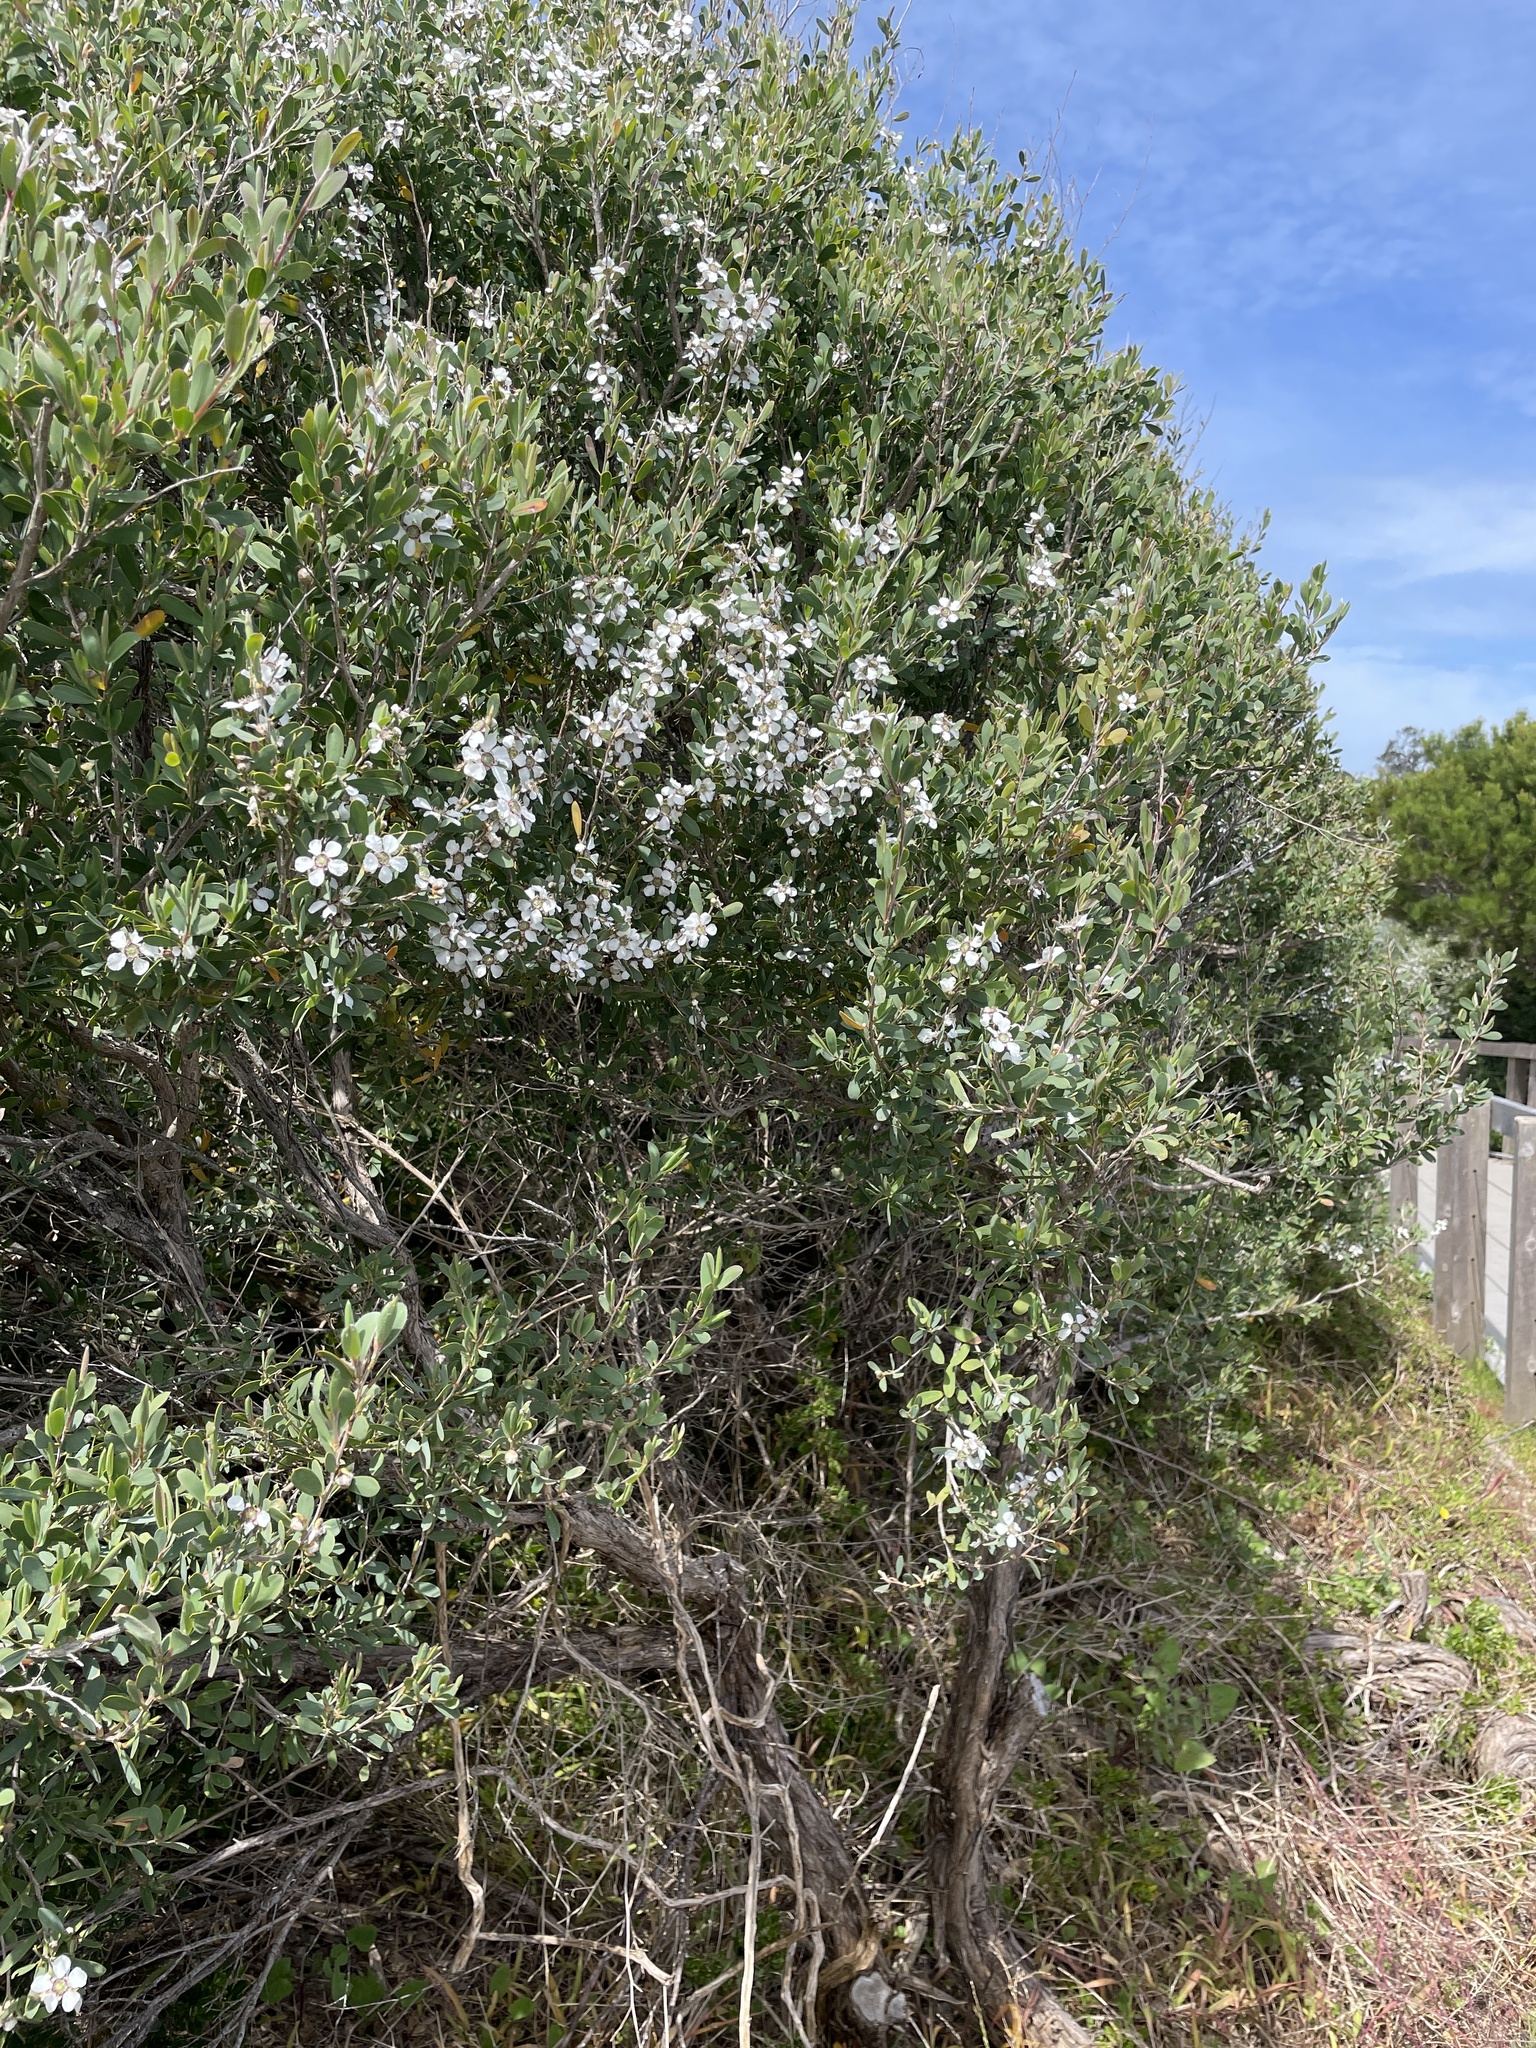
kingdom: Plantae
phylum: Tracheophyta
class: Magnoliopsida
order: Myrtales
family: Myrtaceae
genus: Leptospermum
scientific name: Leptospermum laevigatum
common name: Australian teatree
